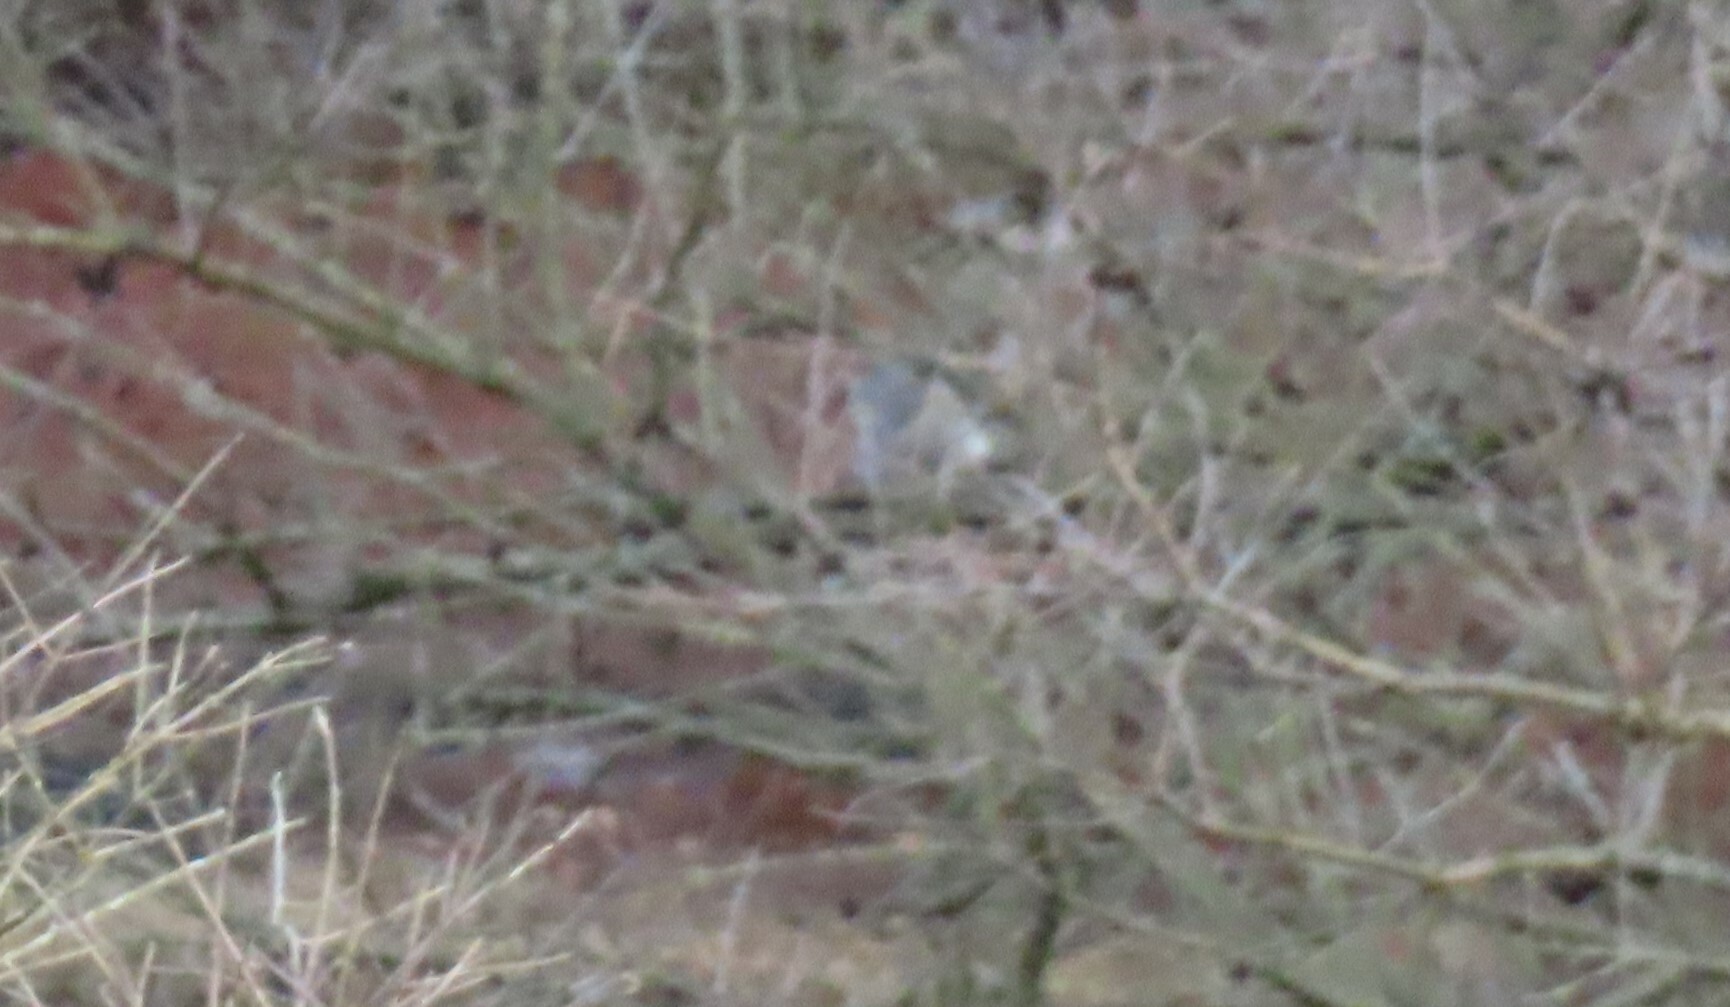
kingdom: Animalia
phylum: Chordata
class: Aves
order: Pelecaniformes
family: Ardeidae
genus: Ardea
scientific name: Ardea herodias
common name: Great blue heron
